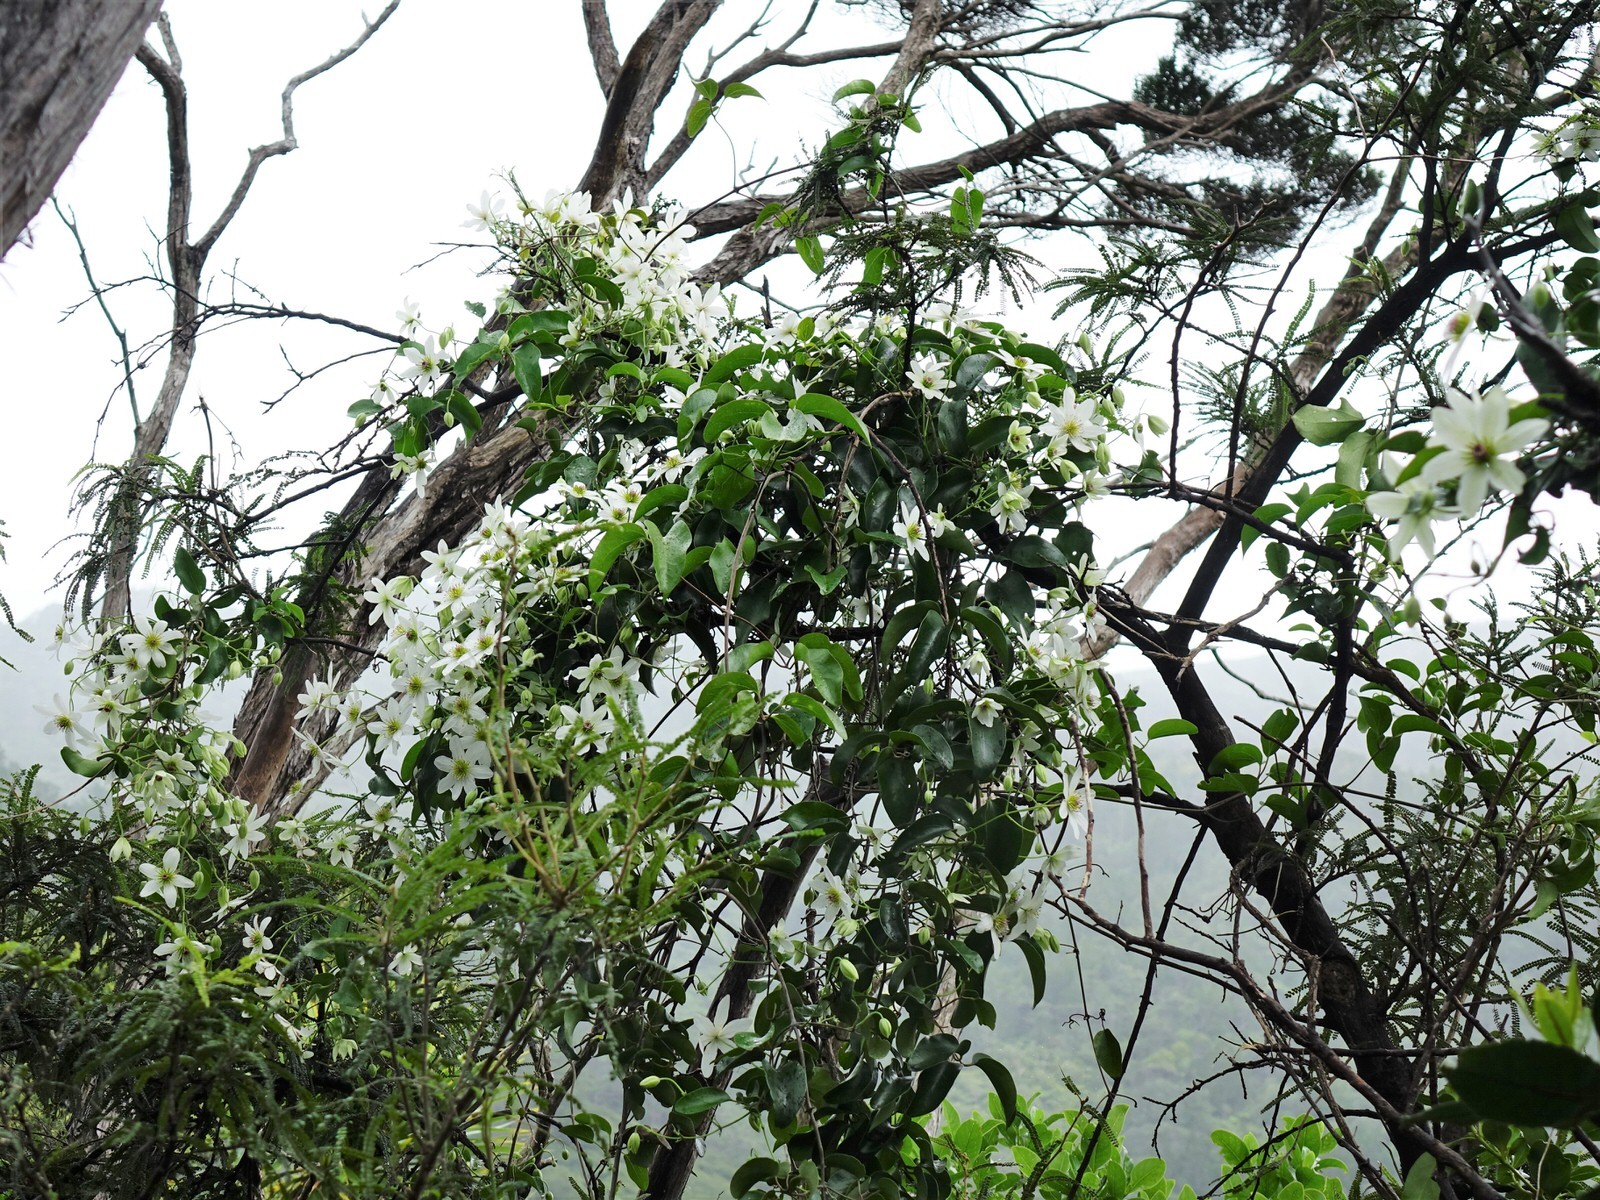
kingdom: Plantae
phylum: Tracheophyta
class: Magnoliopsida
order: Ranunculales
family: Ranunculaceae
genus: Clematis
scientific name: Clematis paniculata
